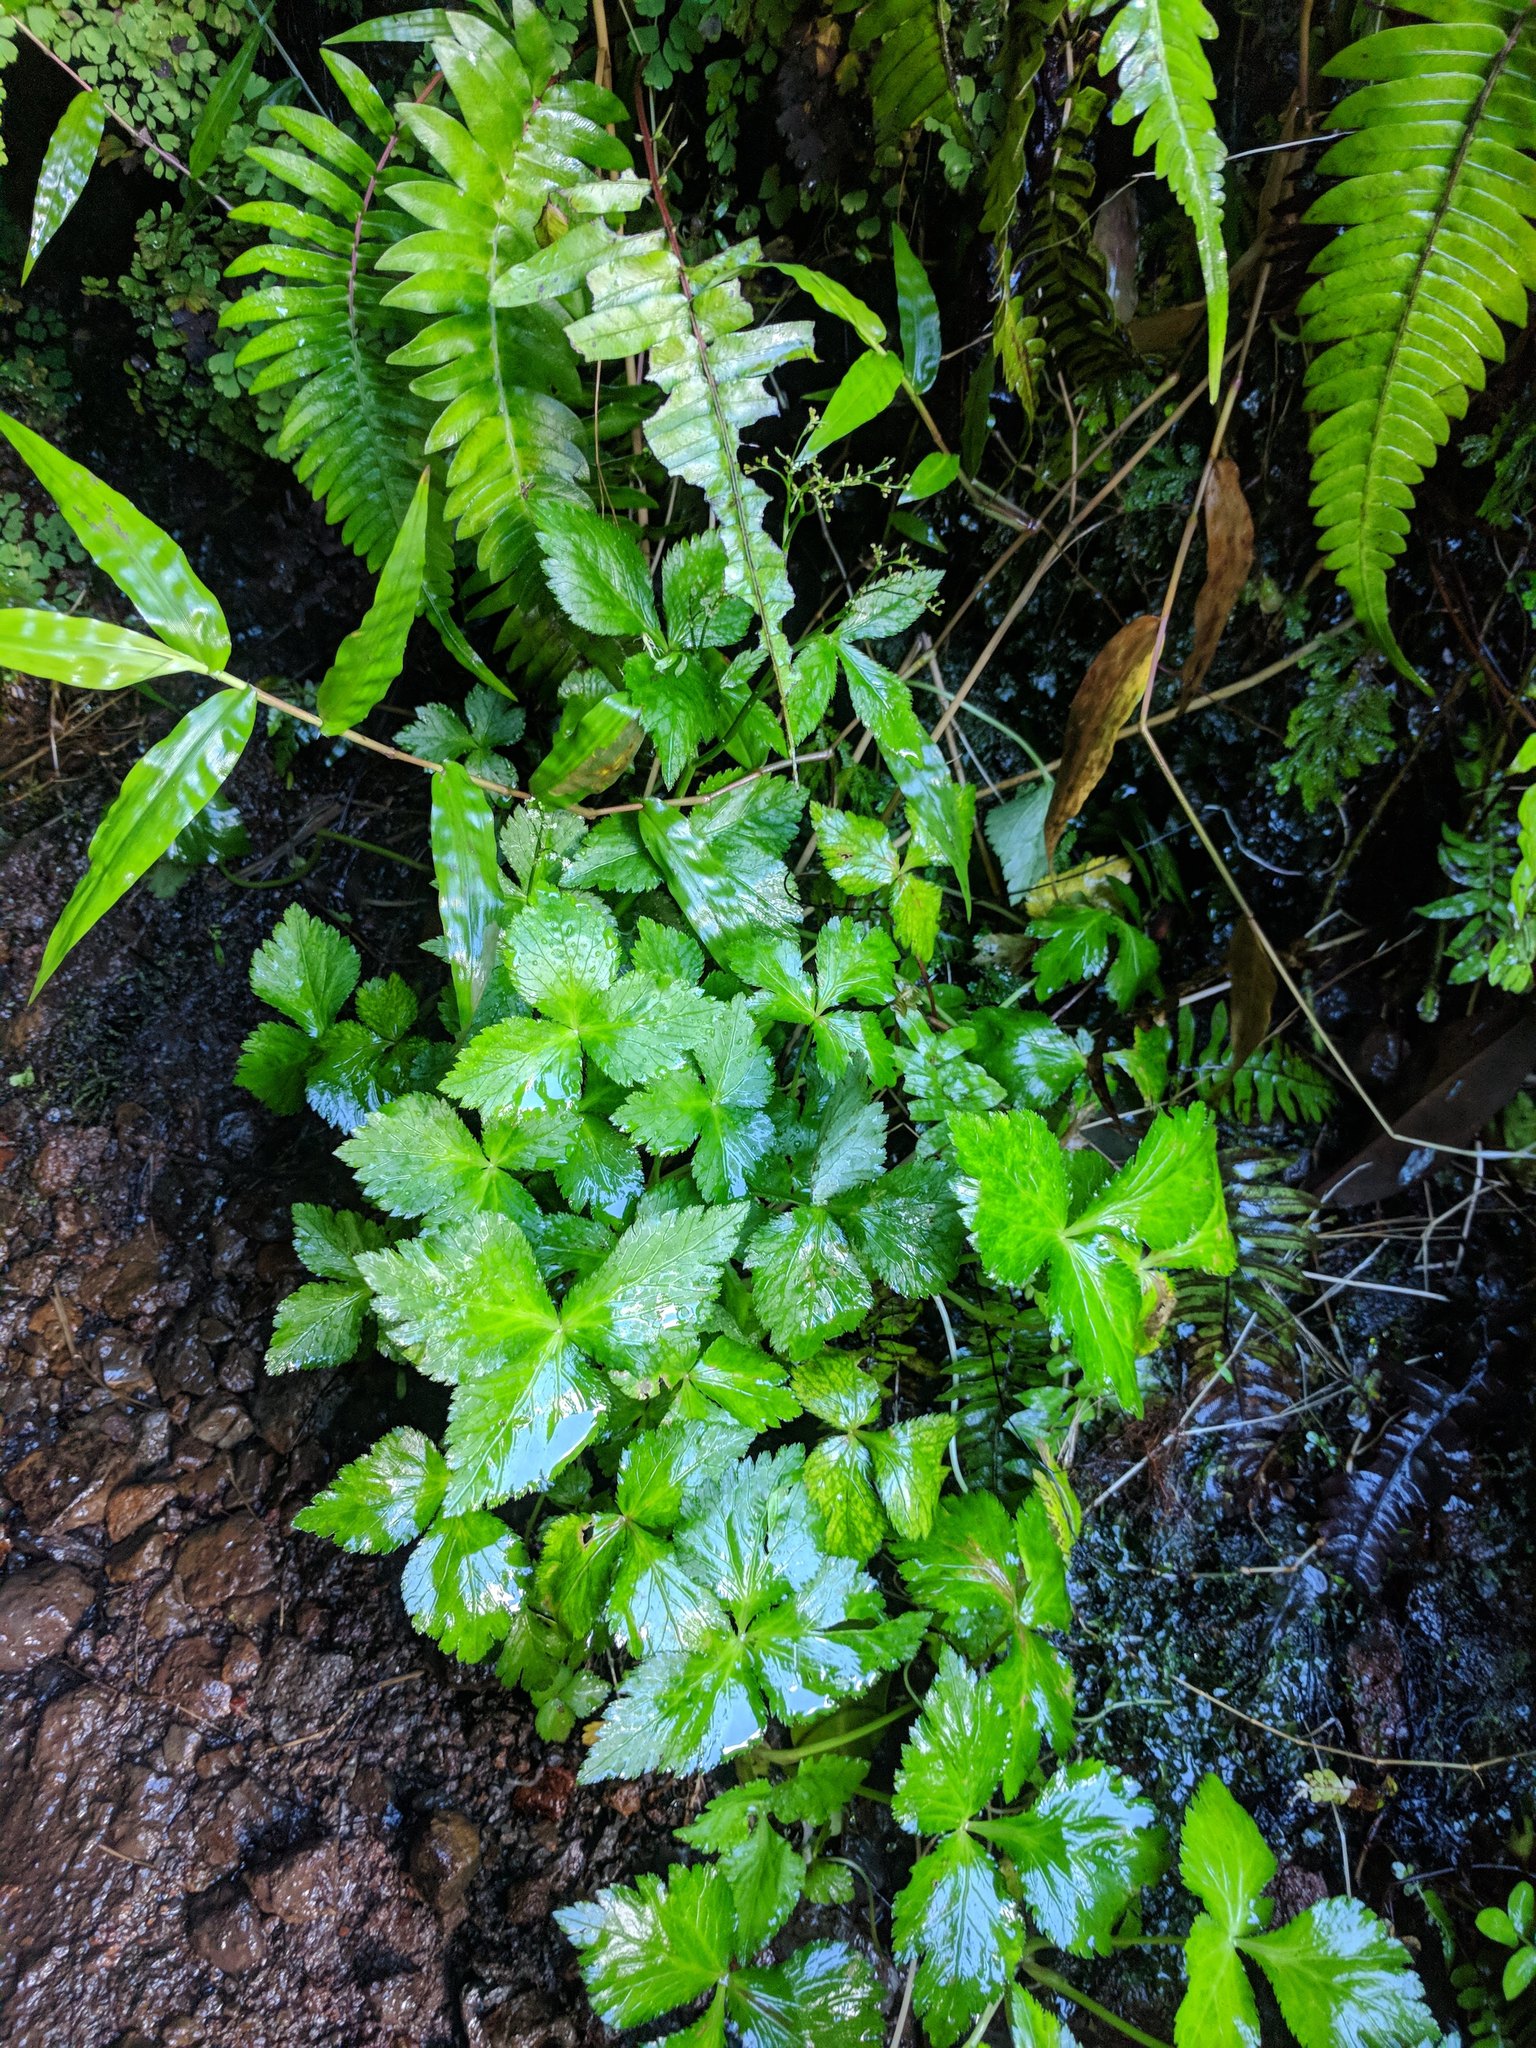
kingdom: Plantae
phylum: Tracheophyta
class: Magnoliopsida
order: Apiales
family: Apiaceae
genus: Cryptotaenia
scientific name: Cryptotaenia canadensis
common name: Honewort
